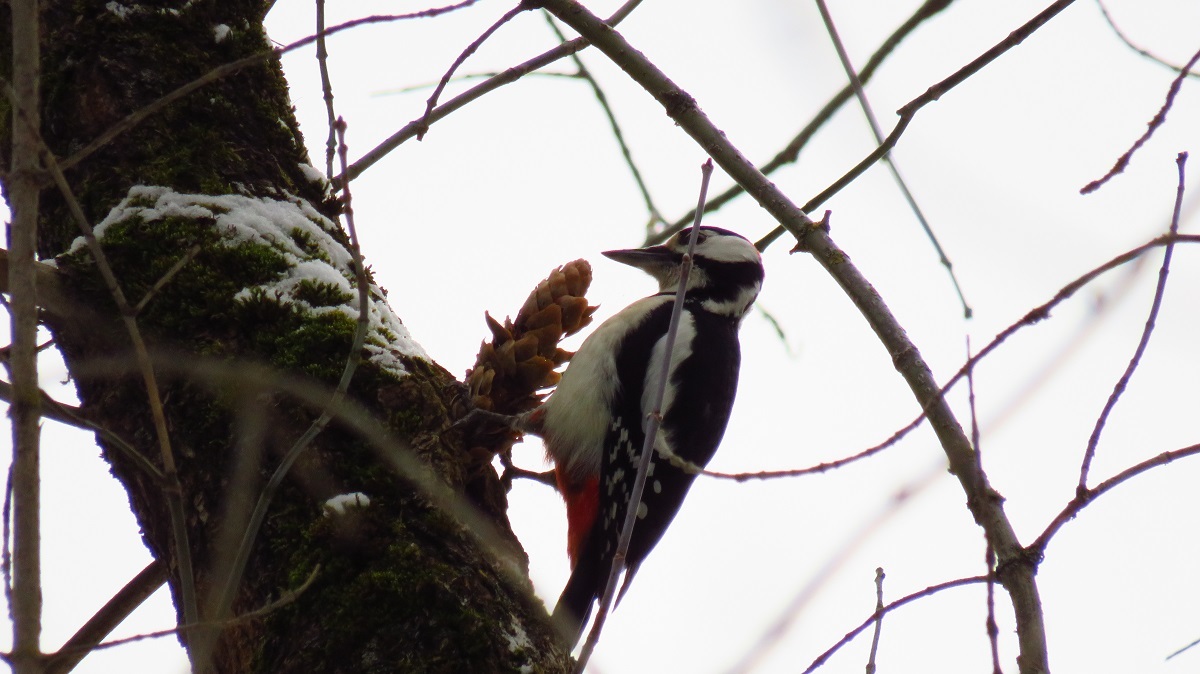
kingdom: Animalia
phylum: Chordata
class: Aves
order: Piciformes
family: Picidae
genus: Dendrocopos
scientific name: Dendrocopos major
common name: Great spotted woodpecker
